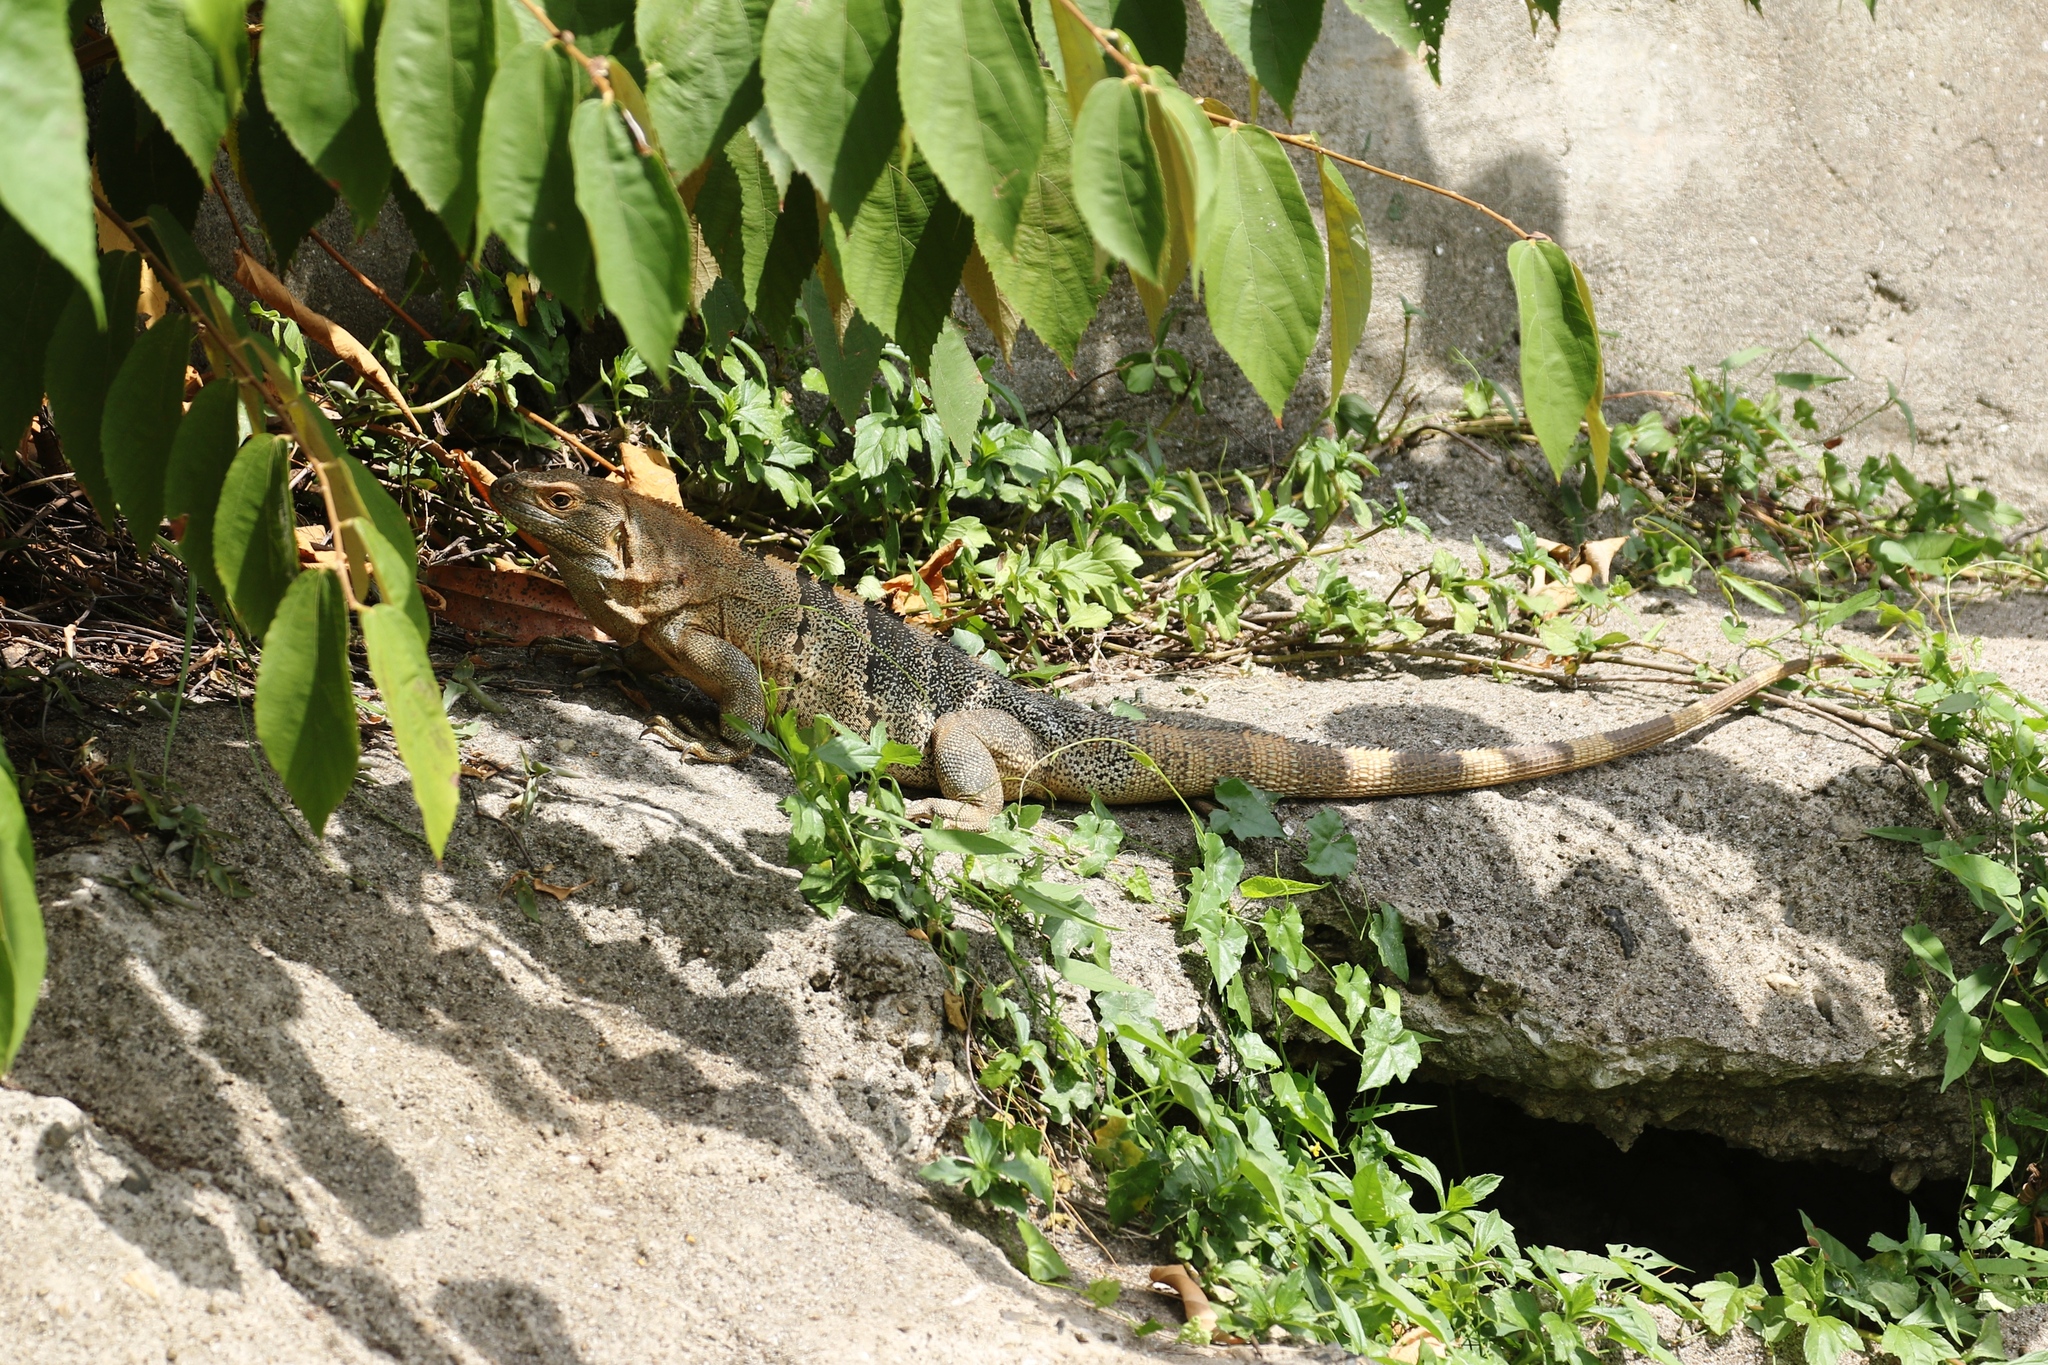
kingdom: Animalia
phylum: Chordata
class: Squamata
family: Iguanidae
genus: Ctenosaura
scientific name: Ctenosaura similis
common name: Black spiny-tailed iguana
